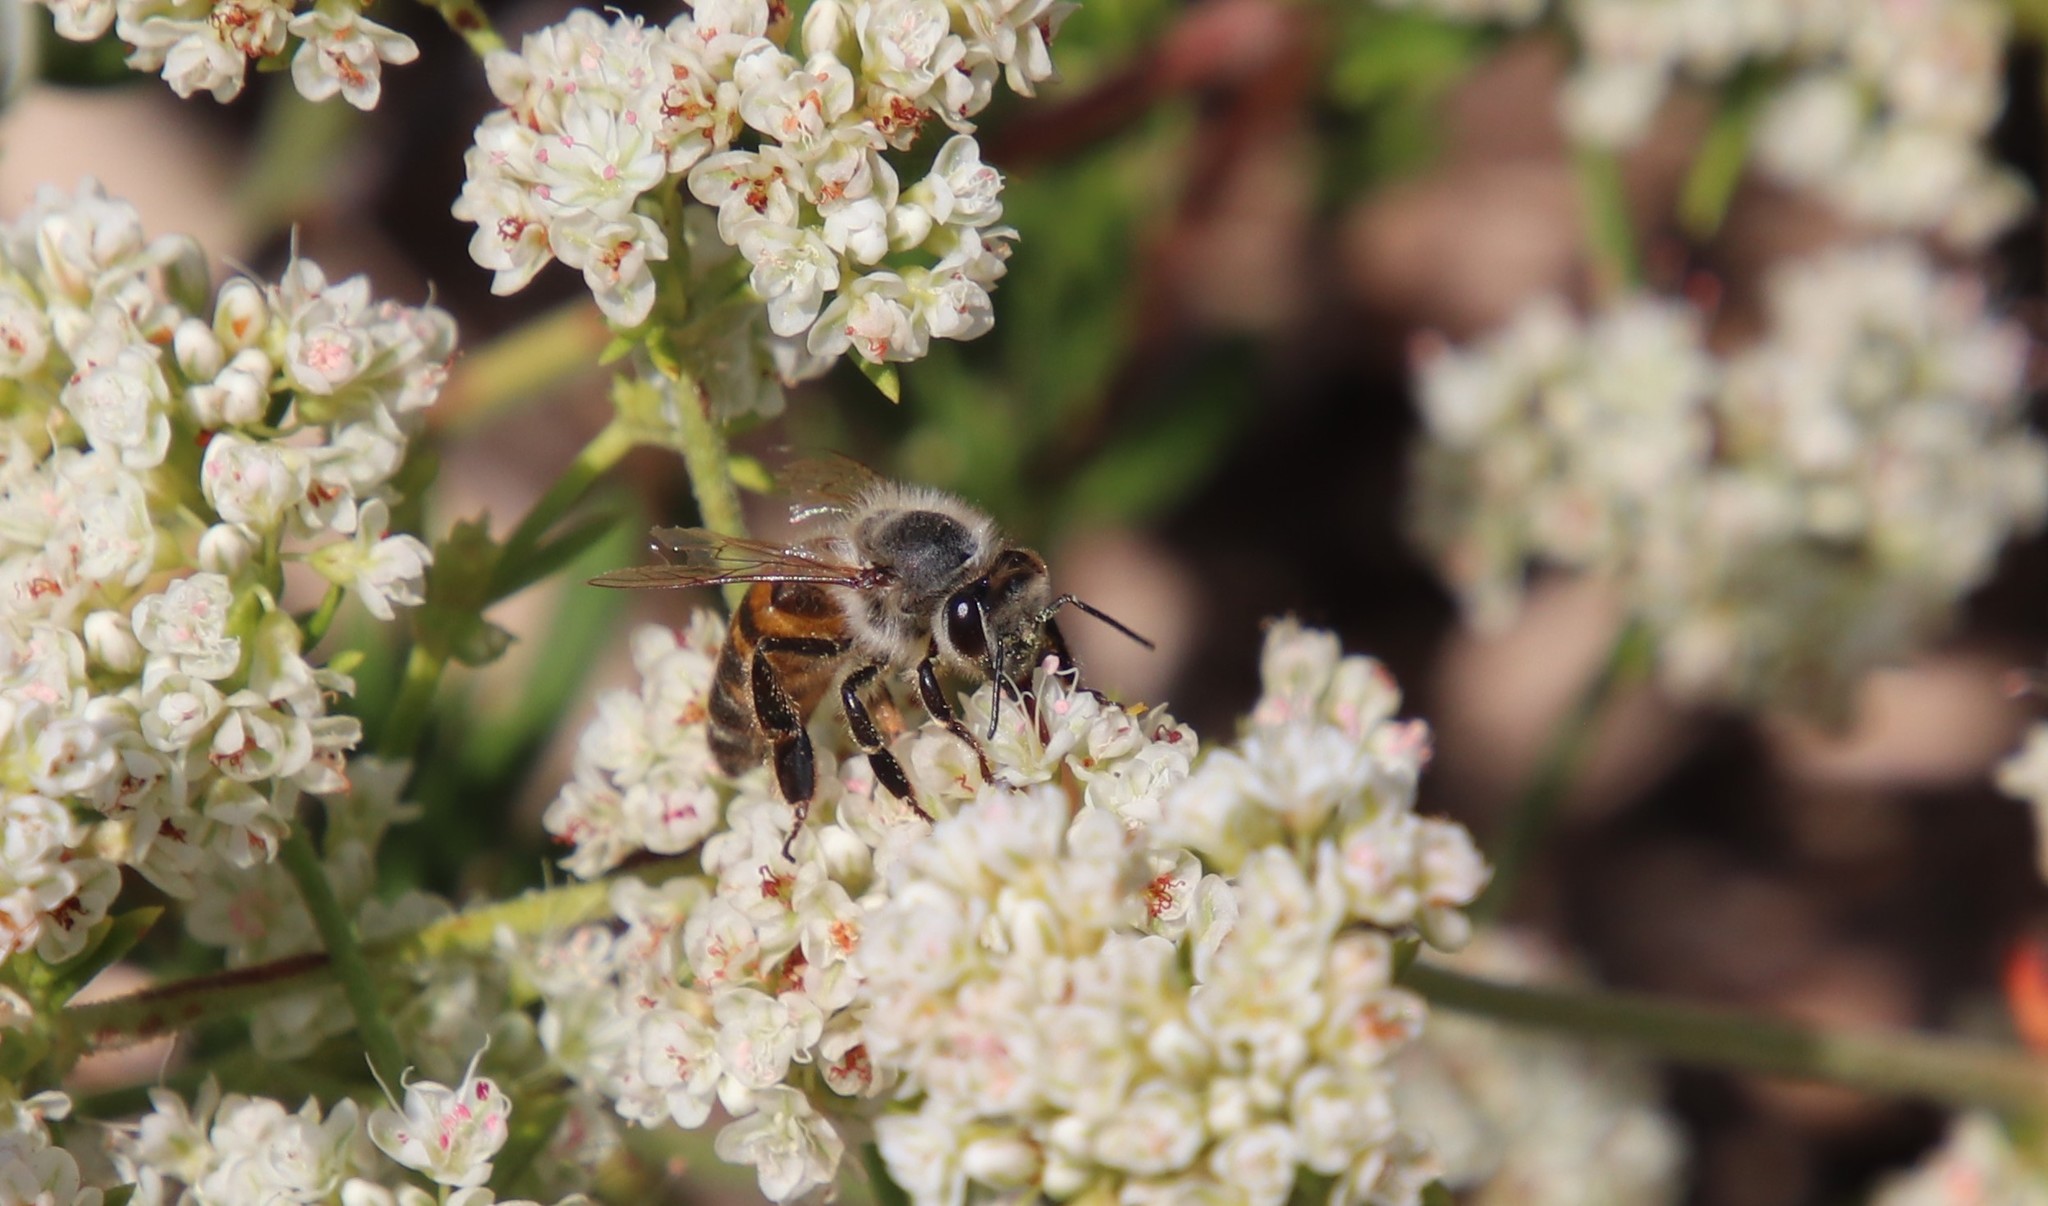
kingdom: Animalia
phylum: Arthropoda
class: Insecta
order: Hymenoptera
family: Apidae
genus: Apis
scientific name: Apis mellifera
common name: Honey bee
